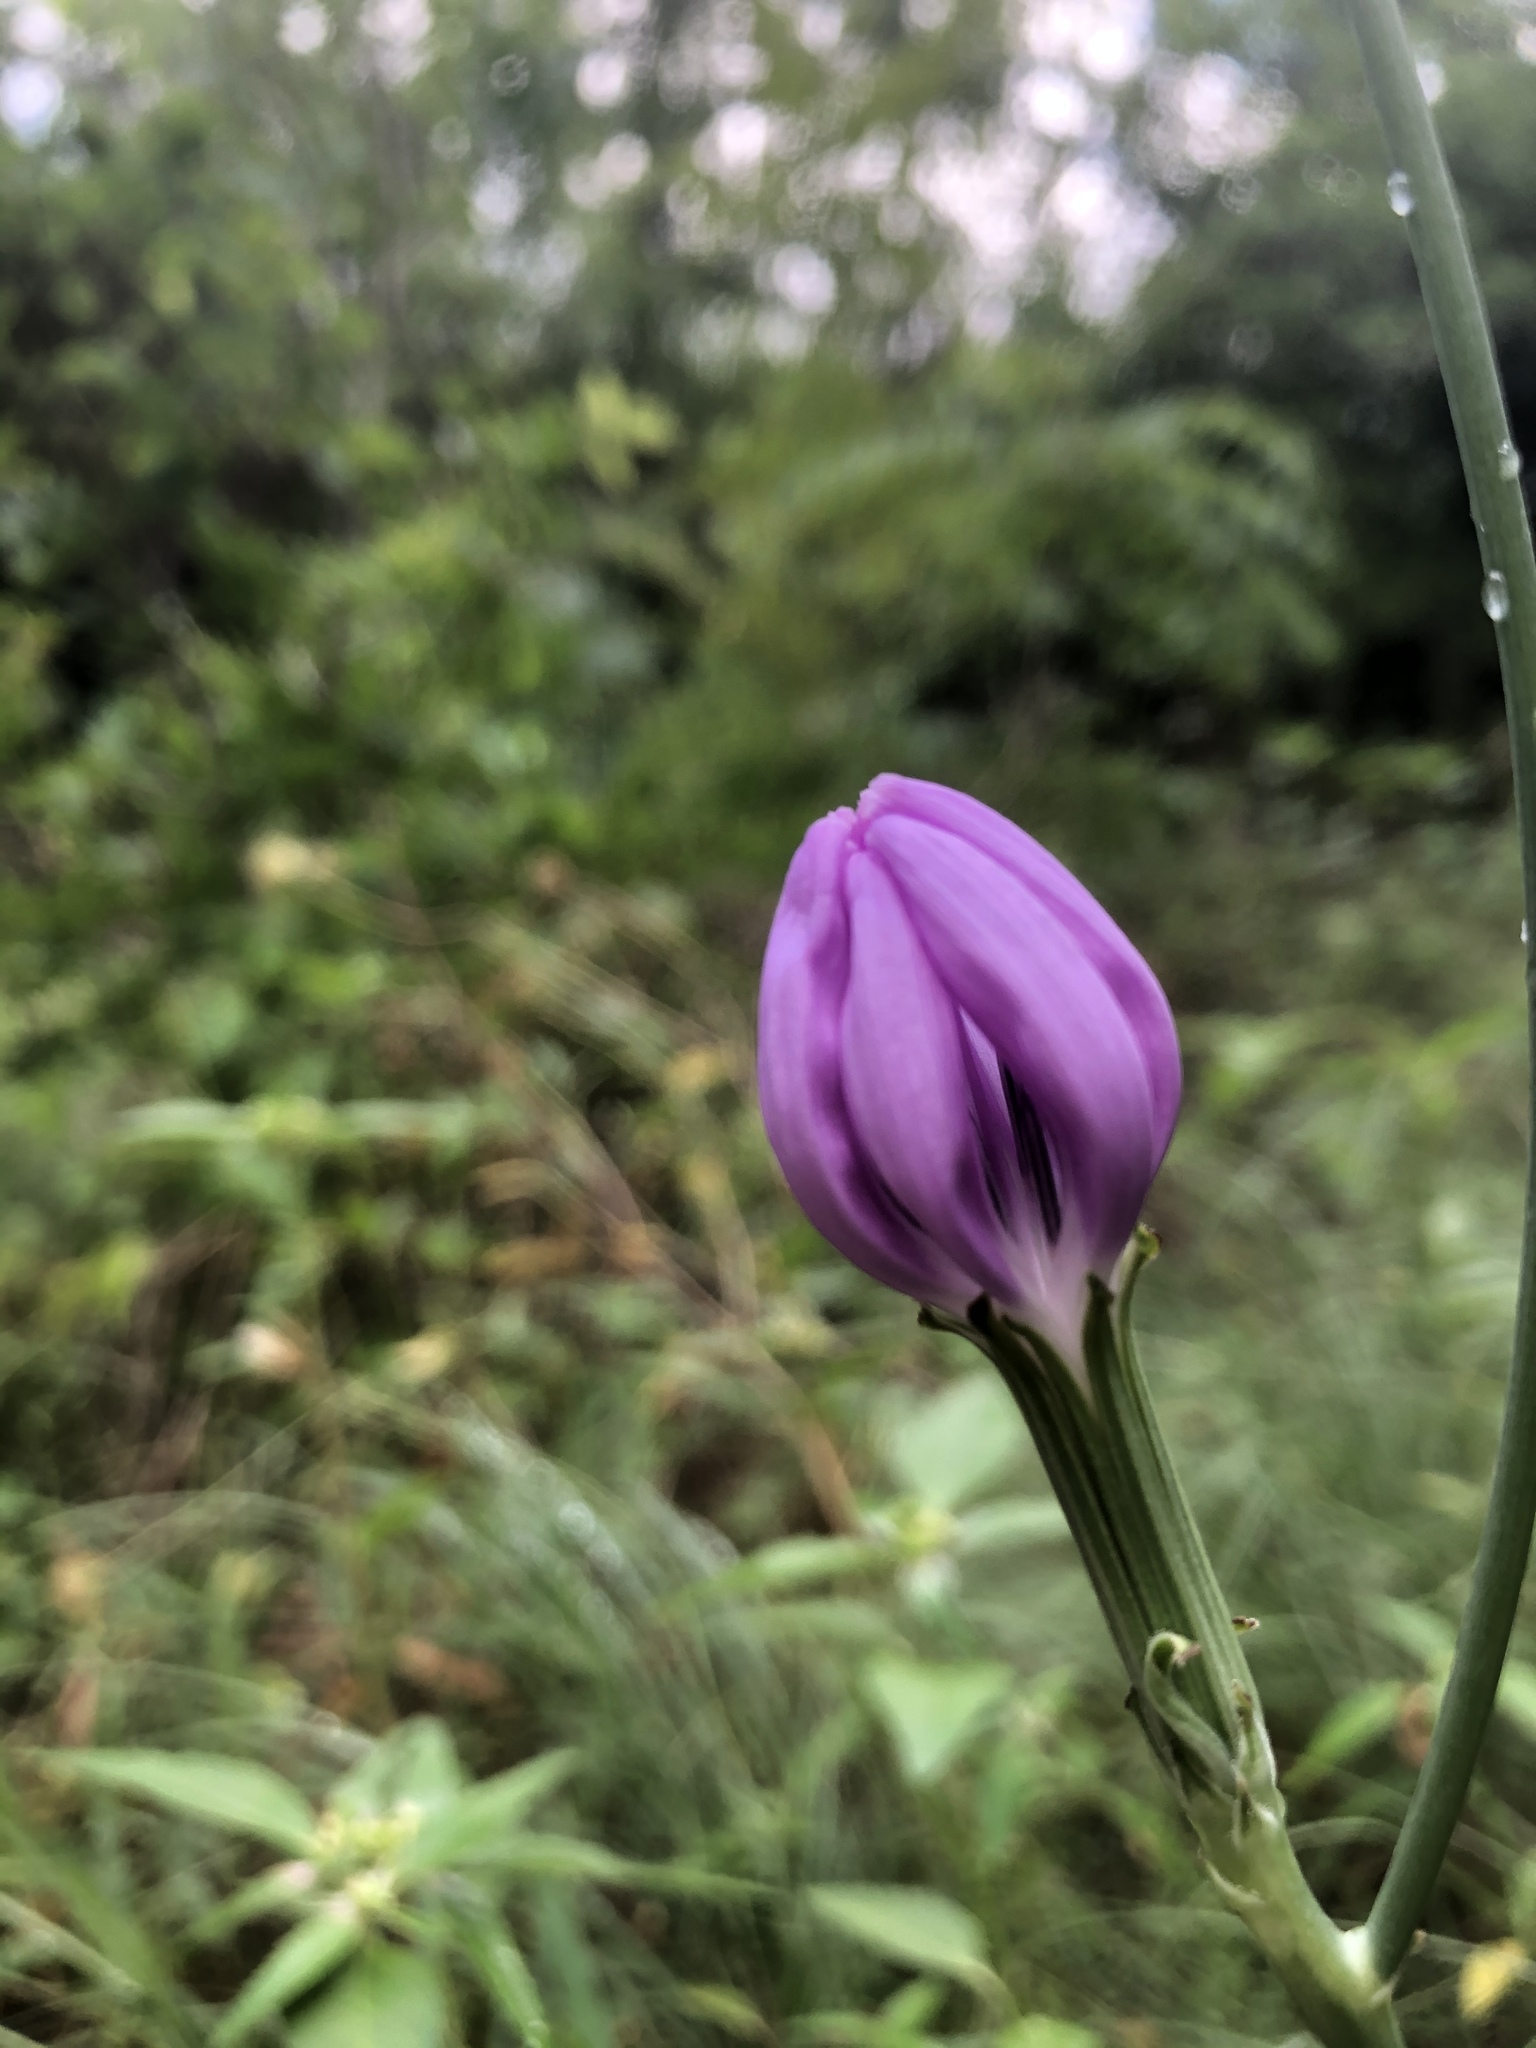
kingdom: Plantae
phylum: Tracheophyta
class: Magnoliopsida
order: Asterales
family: Asteraceae
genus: Lygodesmia
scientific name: Lygodesmia texana
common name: Texas skeleton-plant
